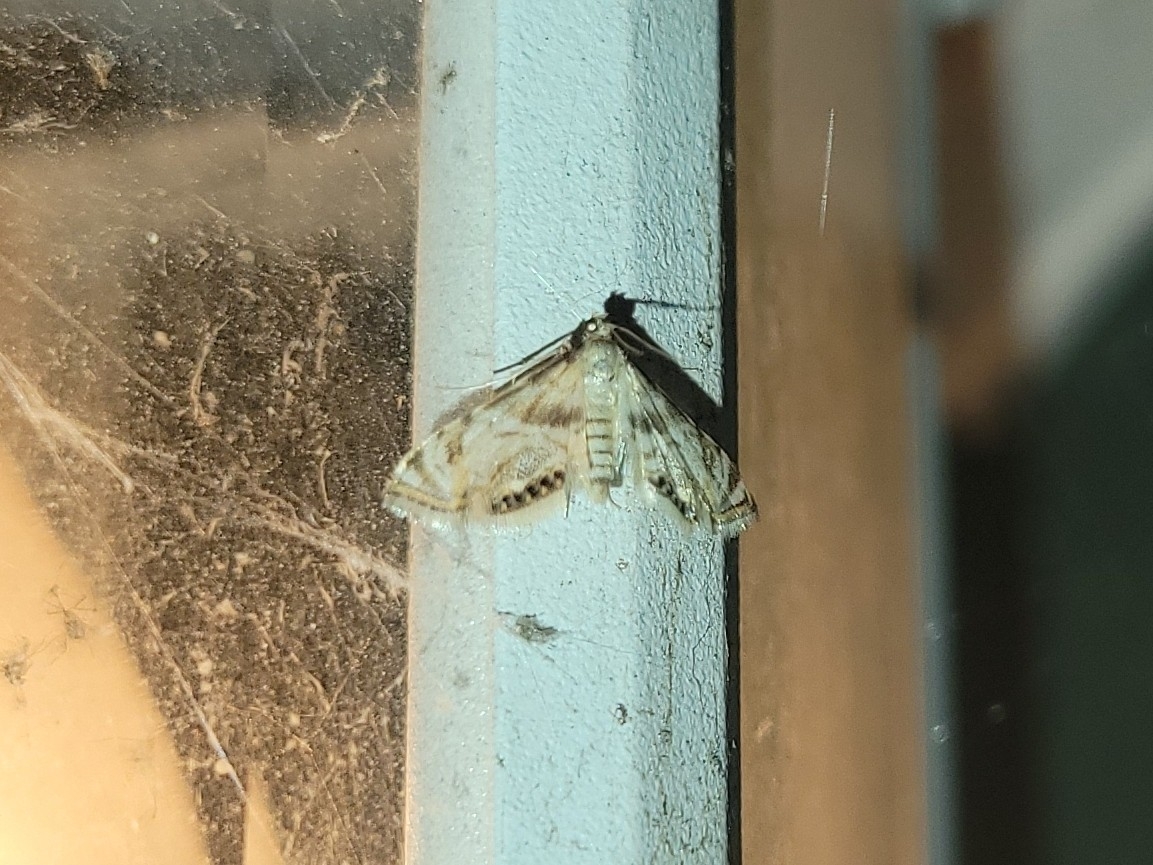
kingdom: Animalia
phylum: Arthropoda
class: Insecta
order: Lepidoptera
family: Crambidae
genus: Petrophila
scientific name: Petrophila canadensis
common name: Canadian petrophila
